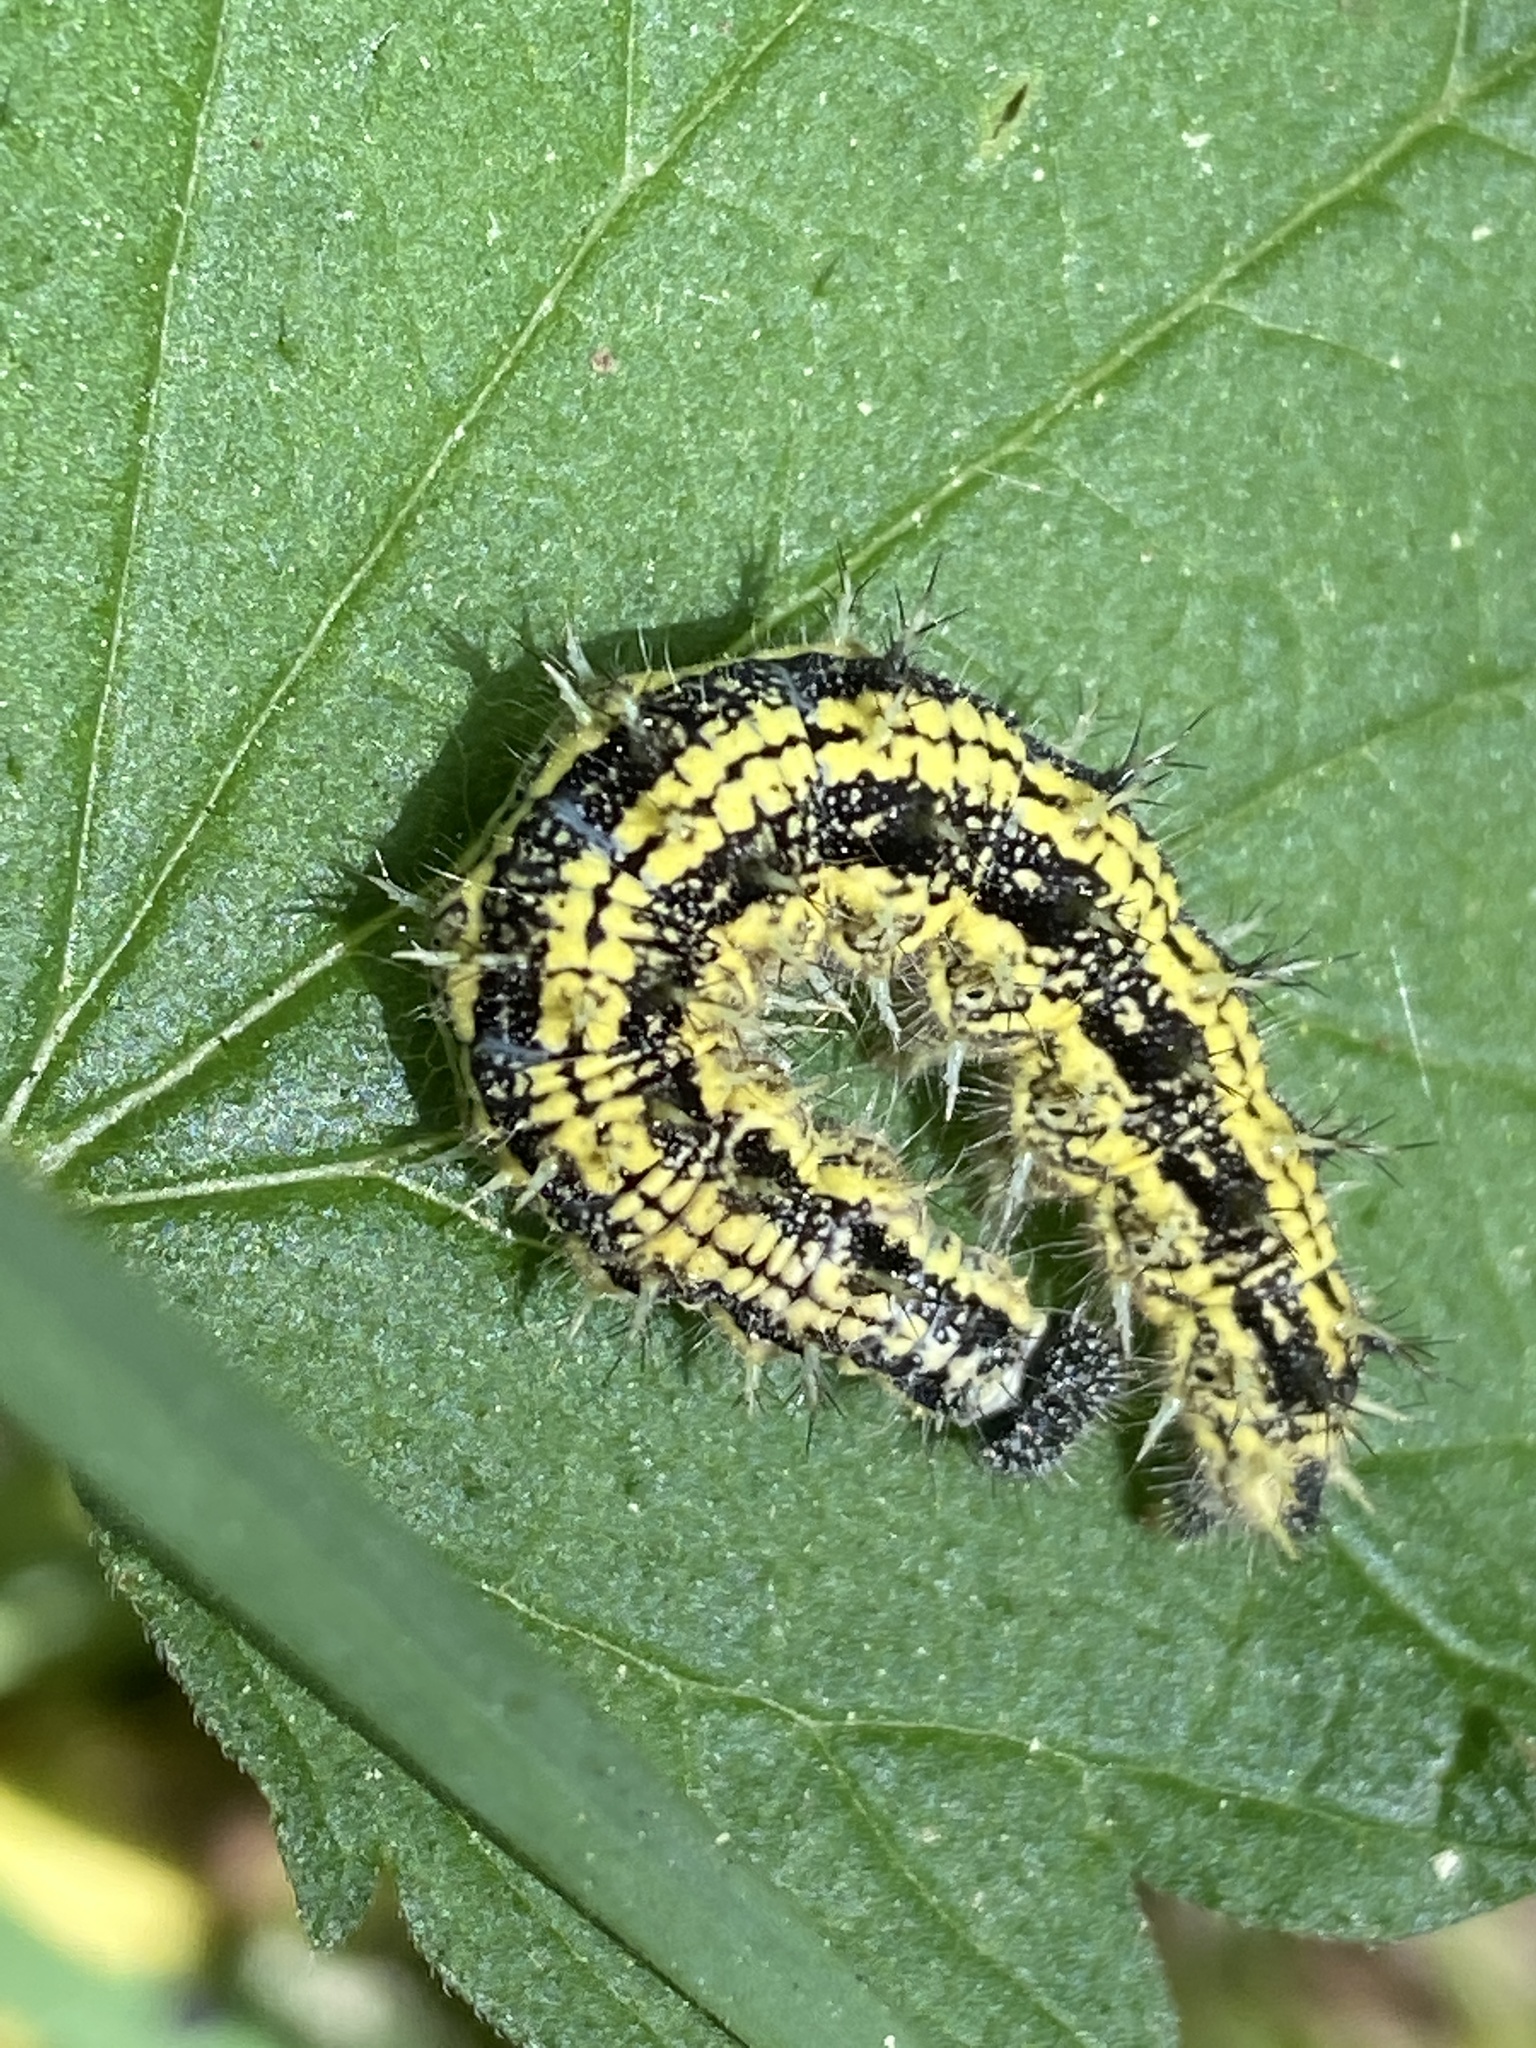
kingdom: Animalia
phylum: Arthropoda
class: Insecta
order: Lepidoptera
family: Nymphalidae
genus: Aglais
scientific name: Aglais urticae
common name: Small tortoiseshell
